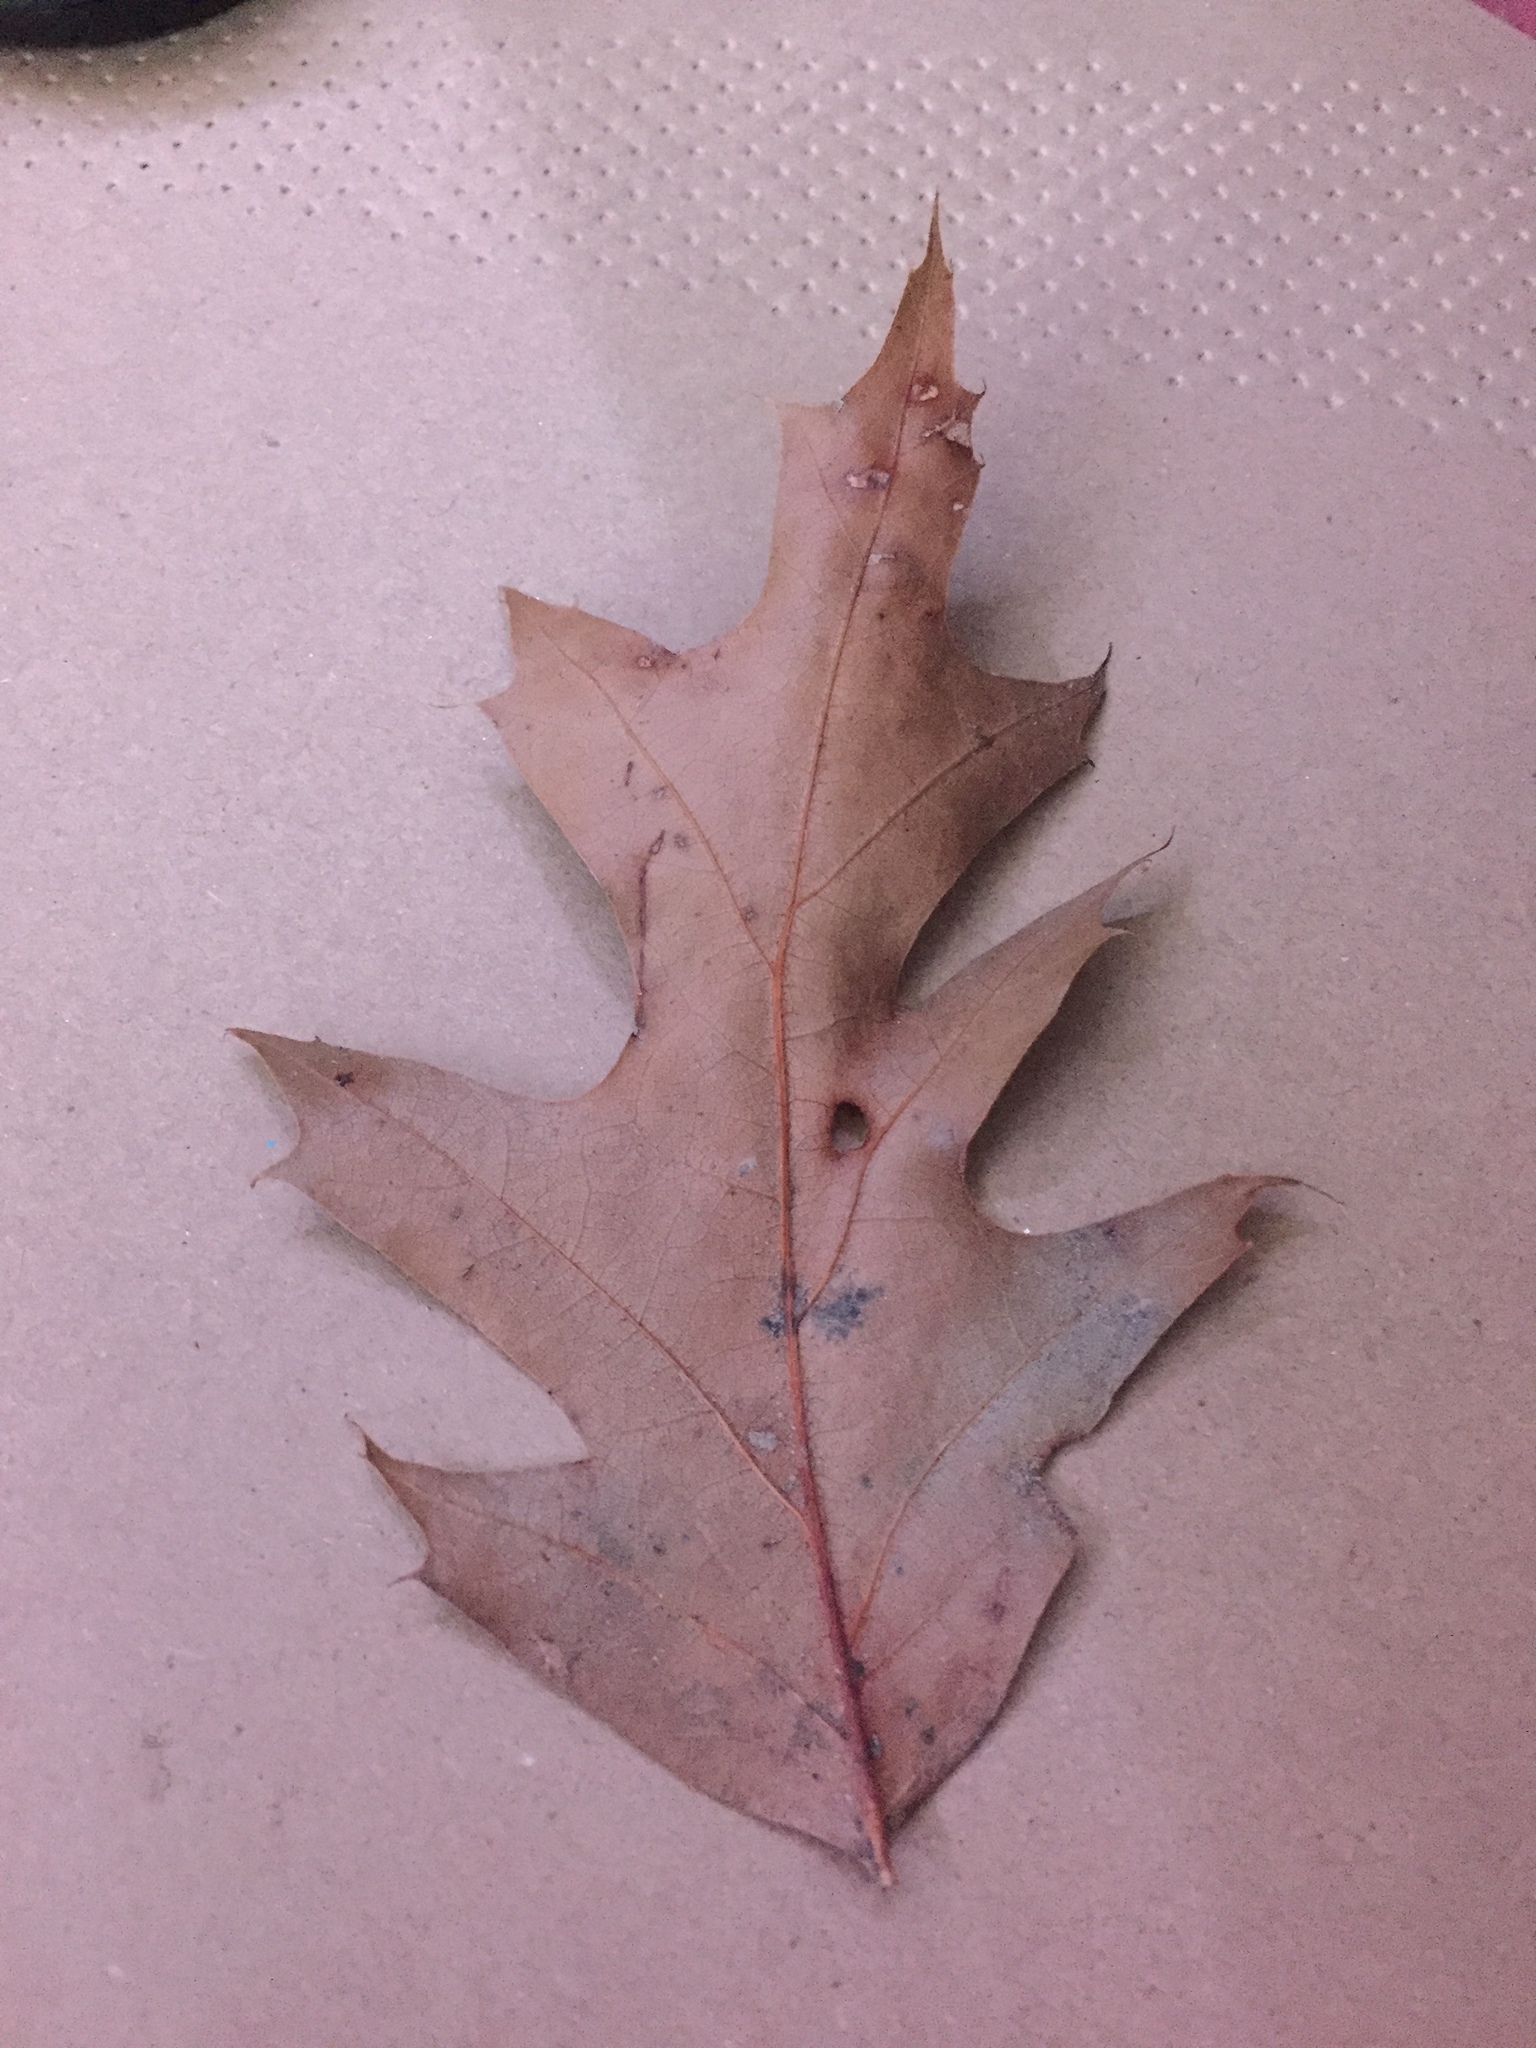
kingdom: Plantae
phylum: Tracheophyta
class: Magnoliopsida
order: Fagales
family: Fagaceae
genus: Quercus
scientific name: Quercus rubra
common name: Red oak
